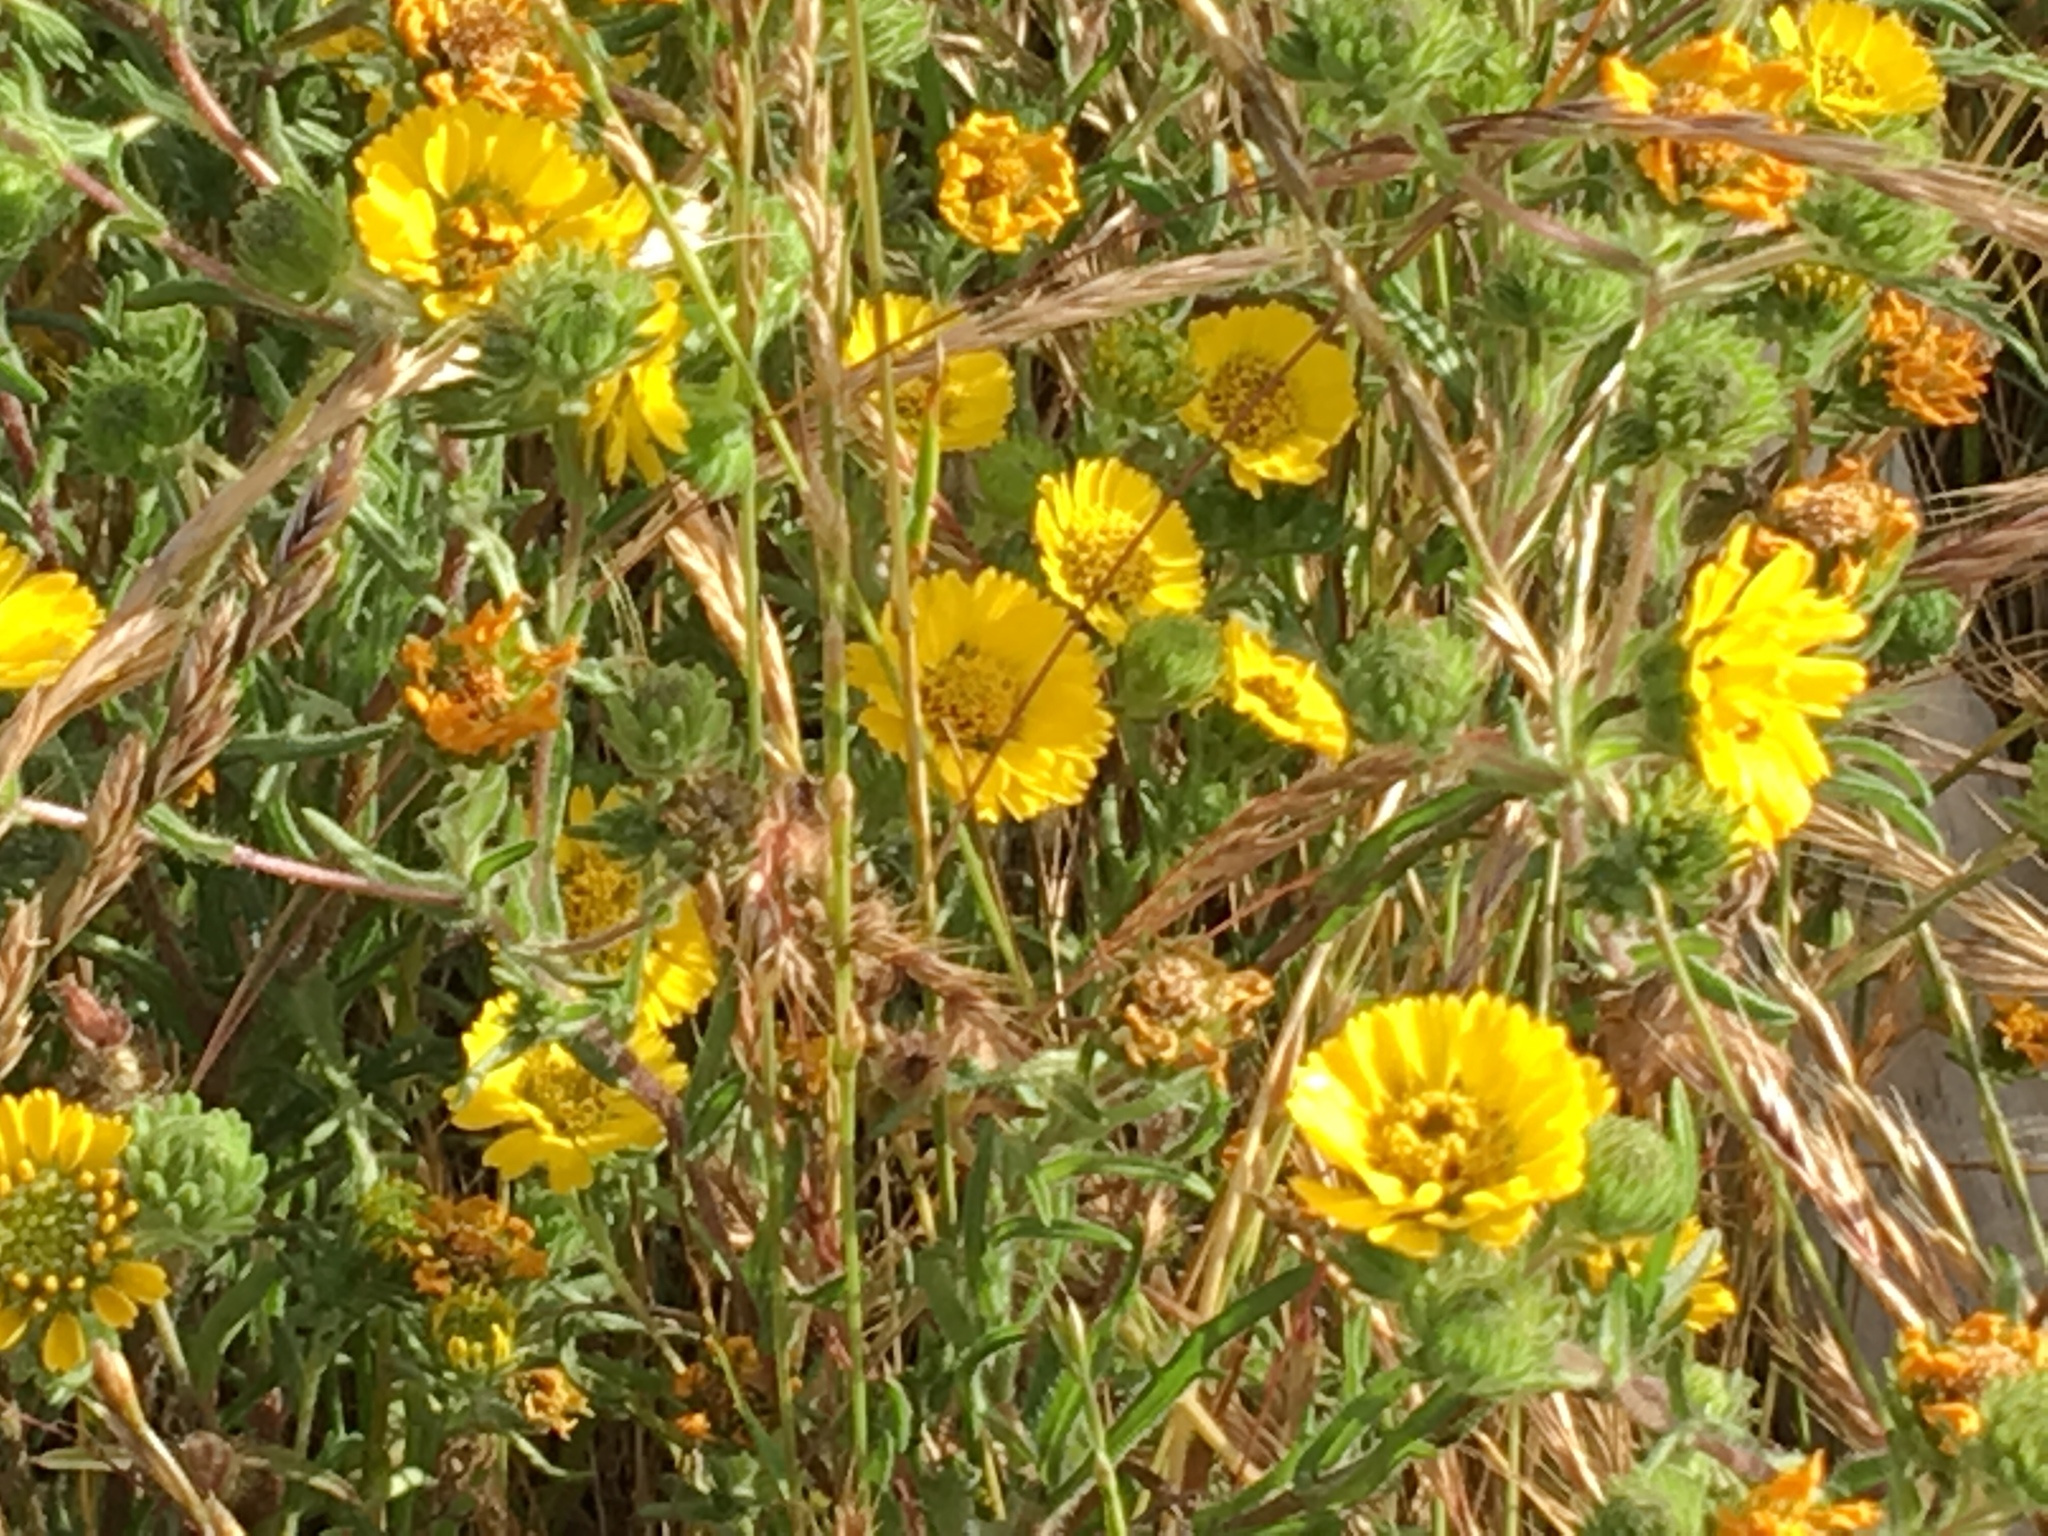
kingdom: Plantae
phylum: Tracheophyta
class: Magnoliopsida
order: Asterales
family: Asteraceae
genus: Deinandra
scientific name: Deinandra corymbosa
